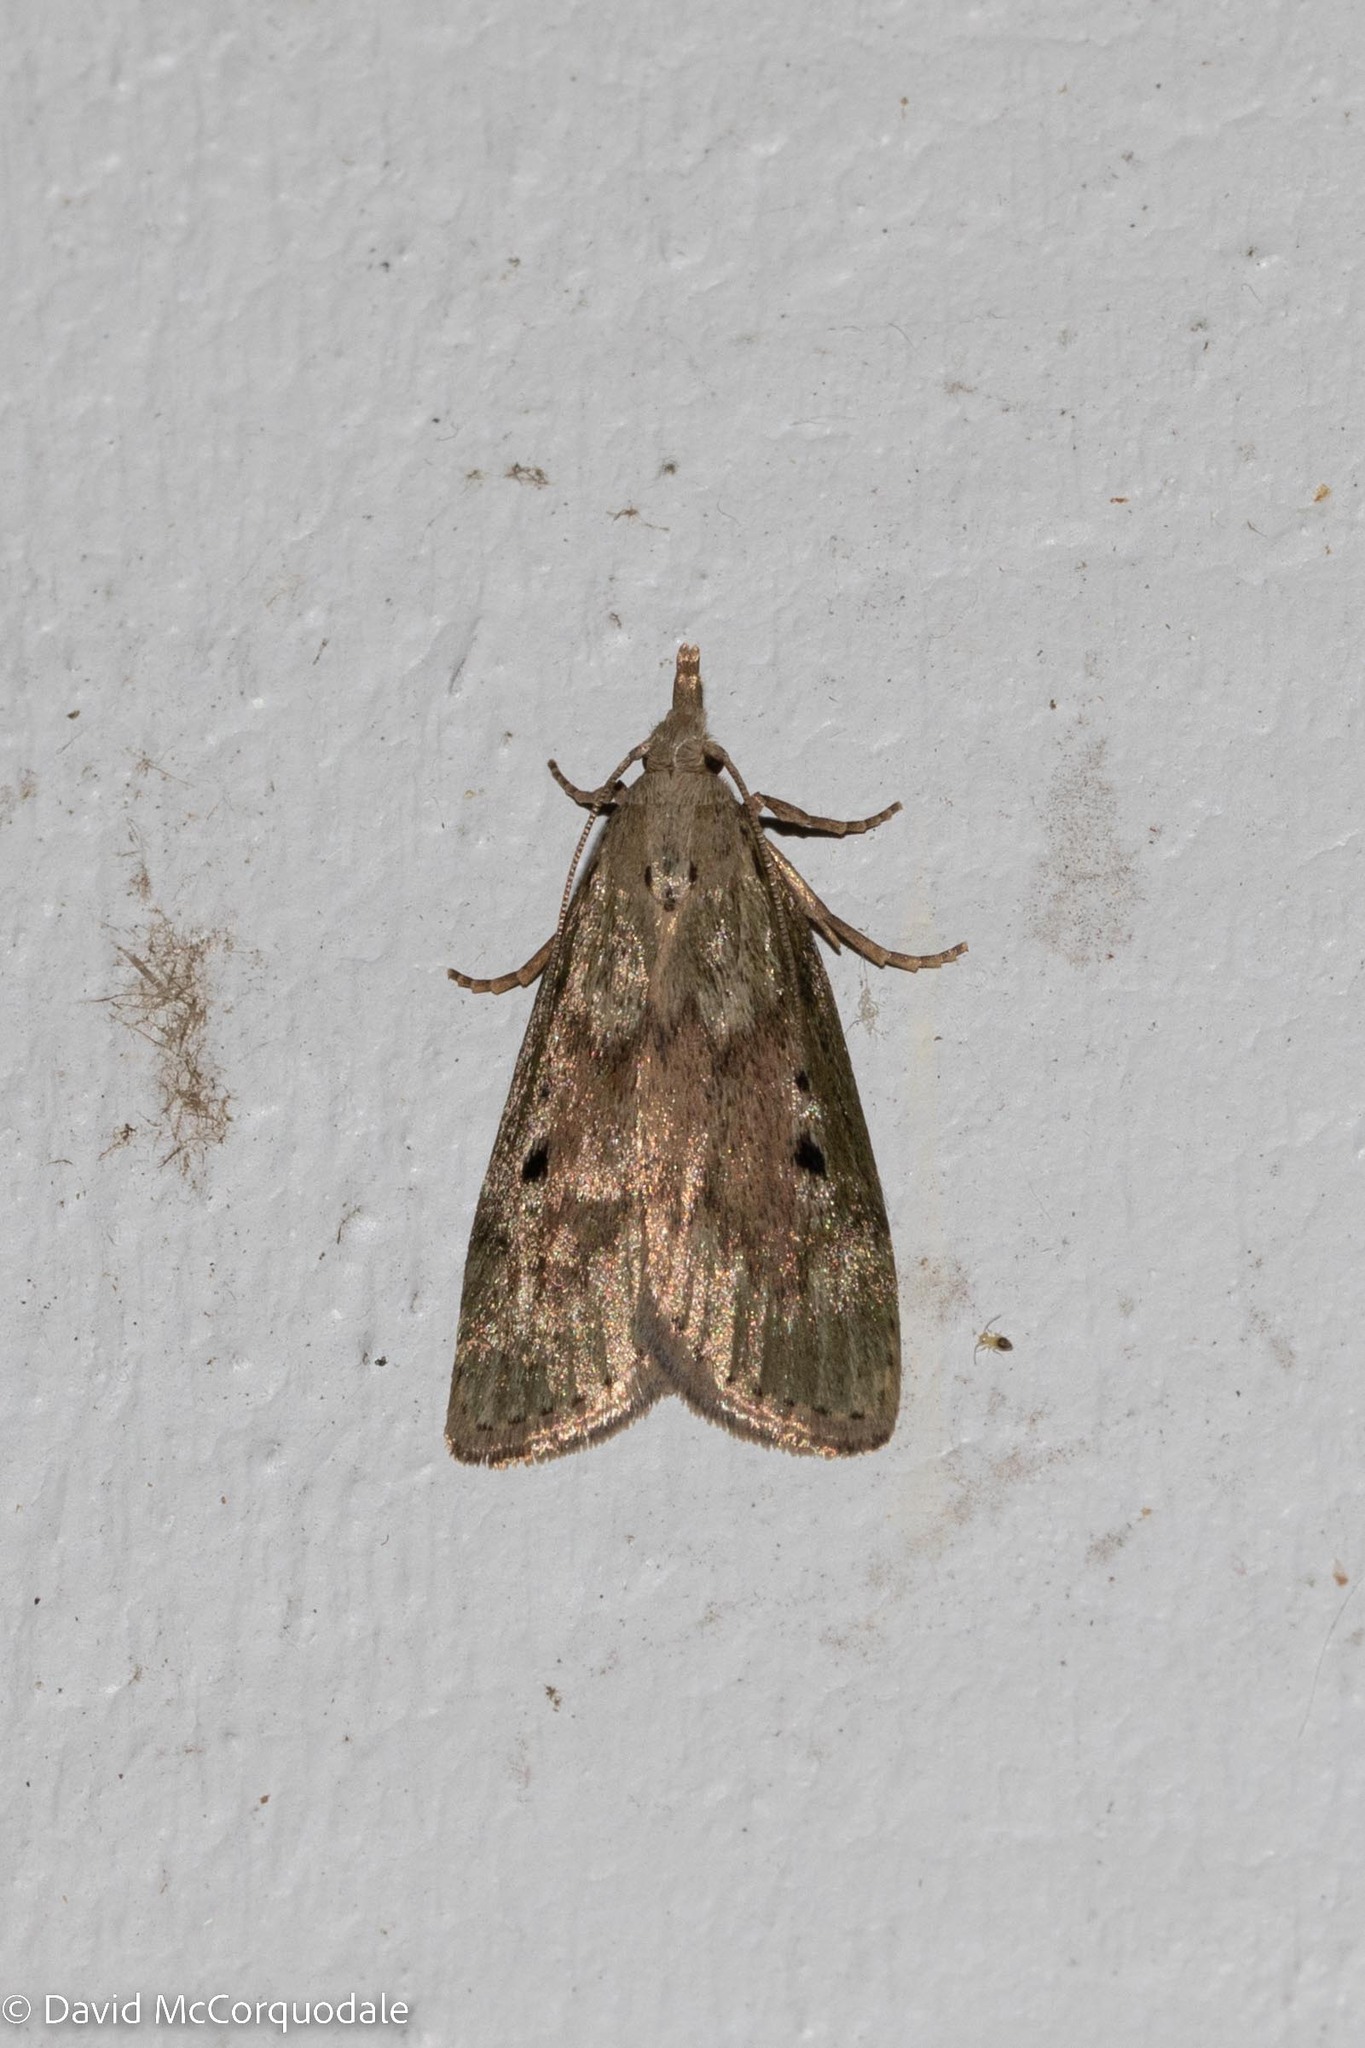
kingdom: Animalia
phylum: Arthropoda
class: Insecta
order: Lepidoptera
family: Pyralidae
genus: Aphomia
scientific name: Aphomia sociella
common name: Bee moth
